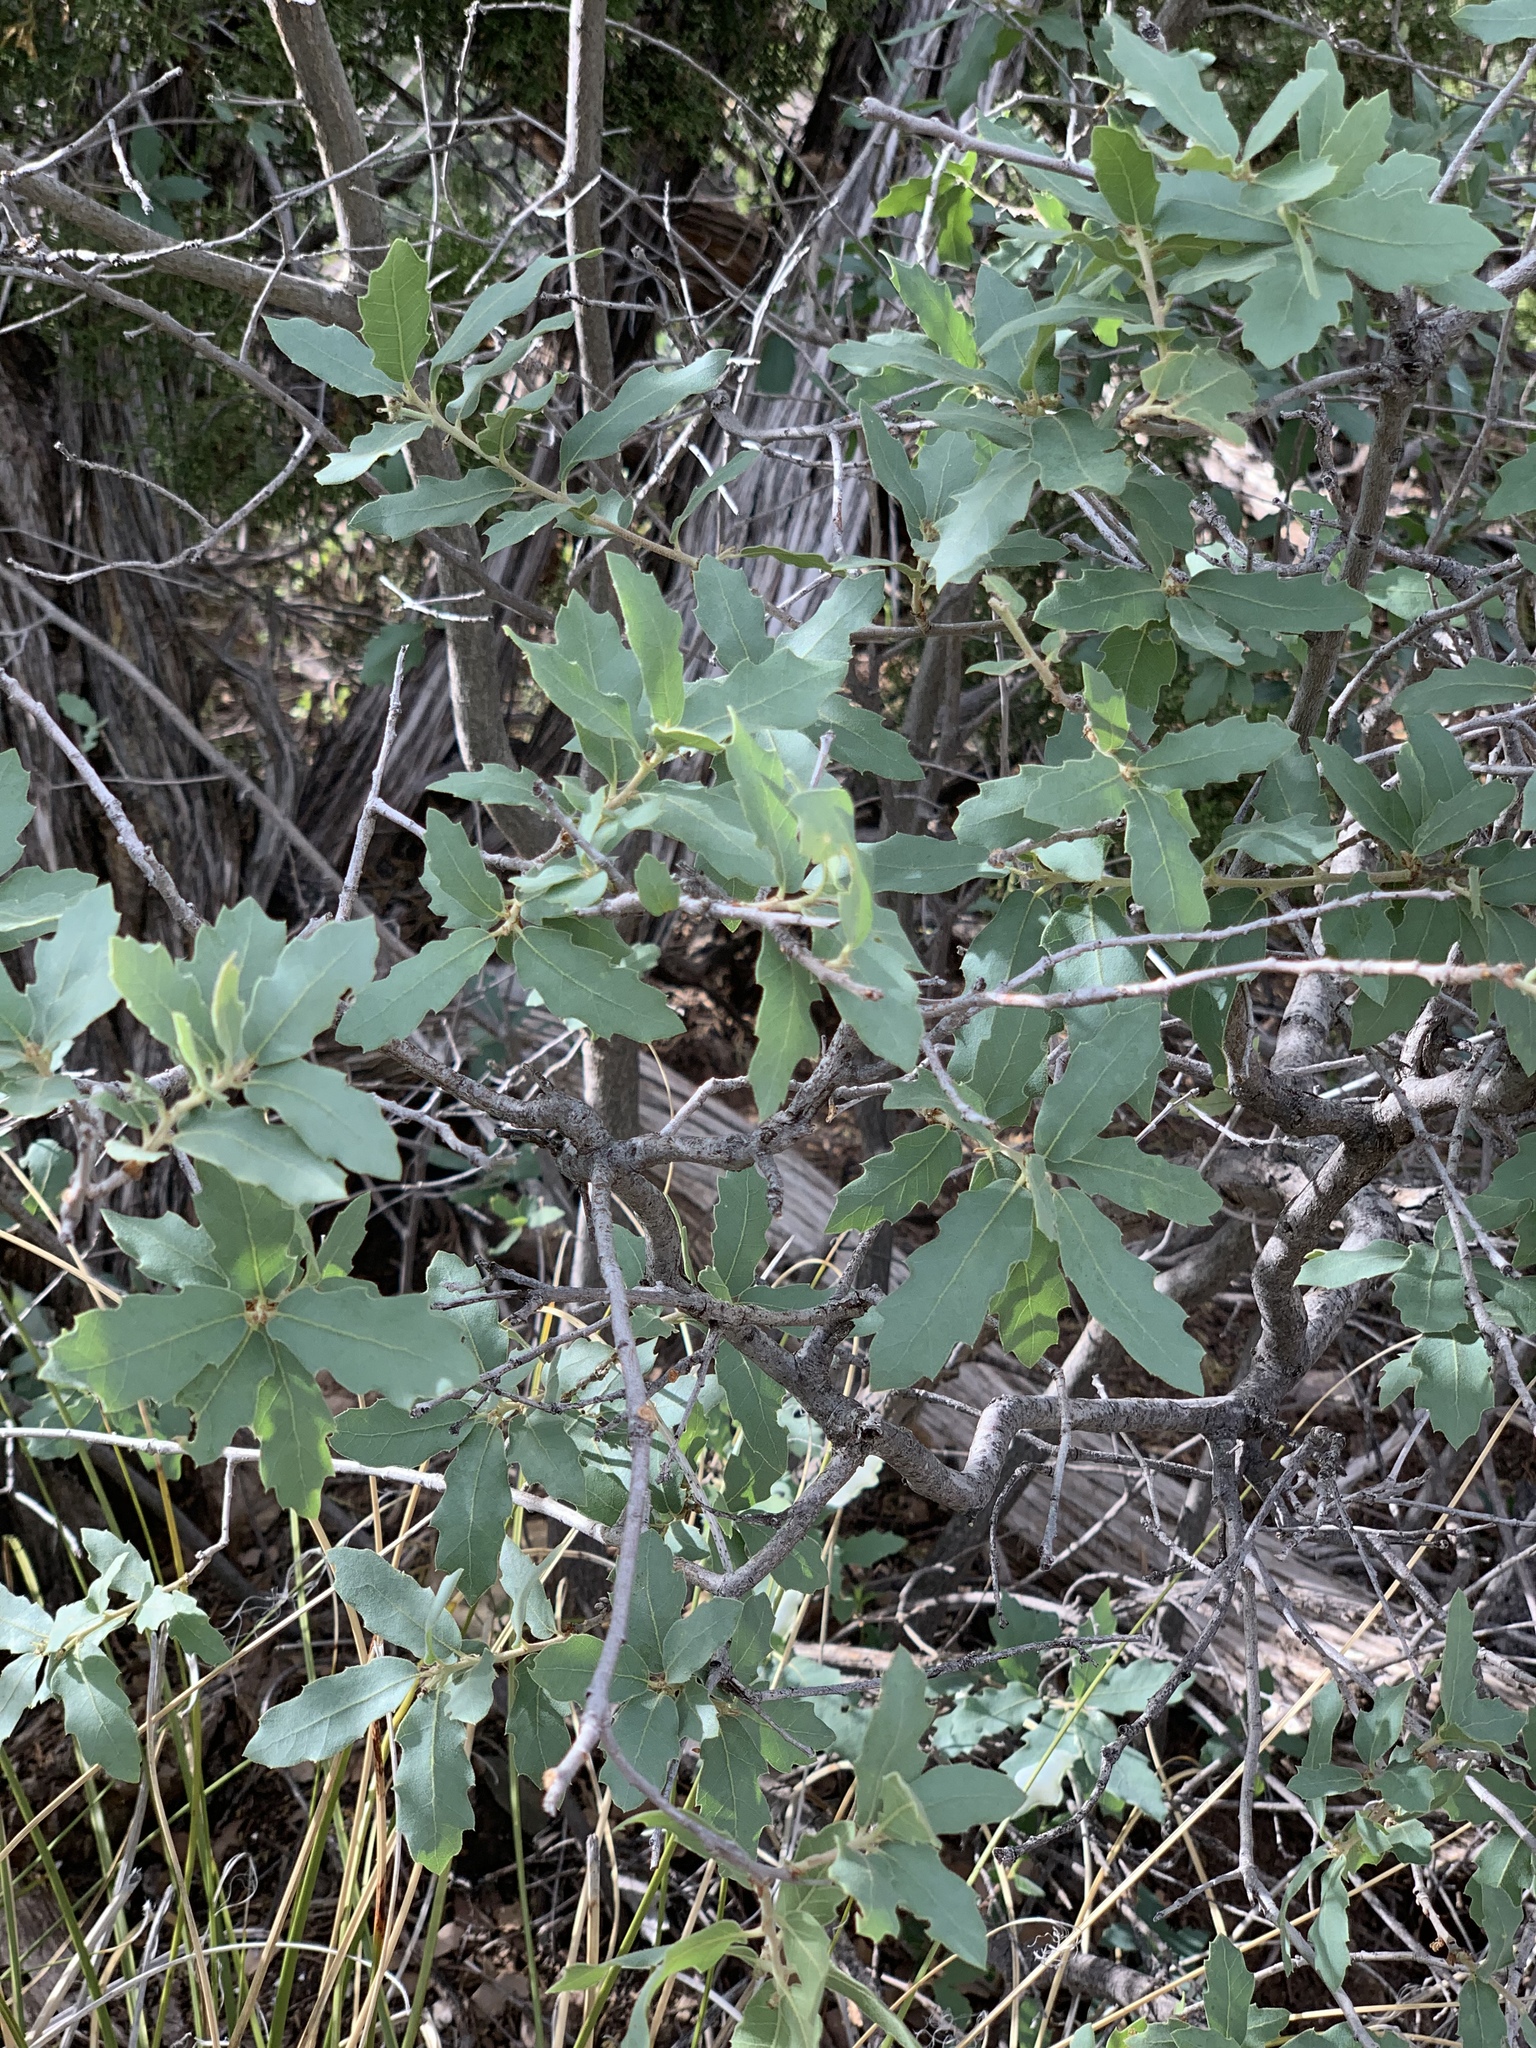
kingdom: Plantae
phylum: Tracheophyta
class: Magnoliopsida
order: Fagales
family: Fagaceae
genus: Quercus
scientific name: Quercus undulata
